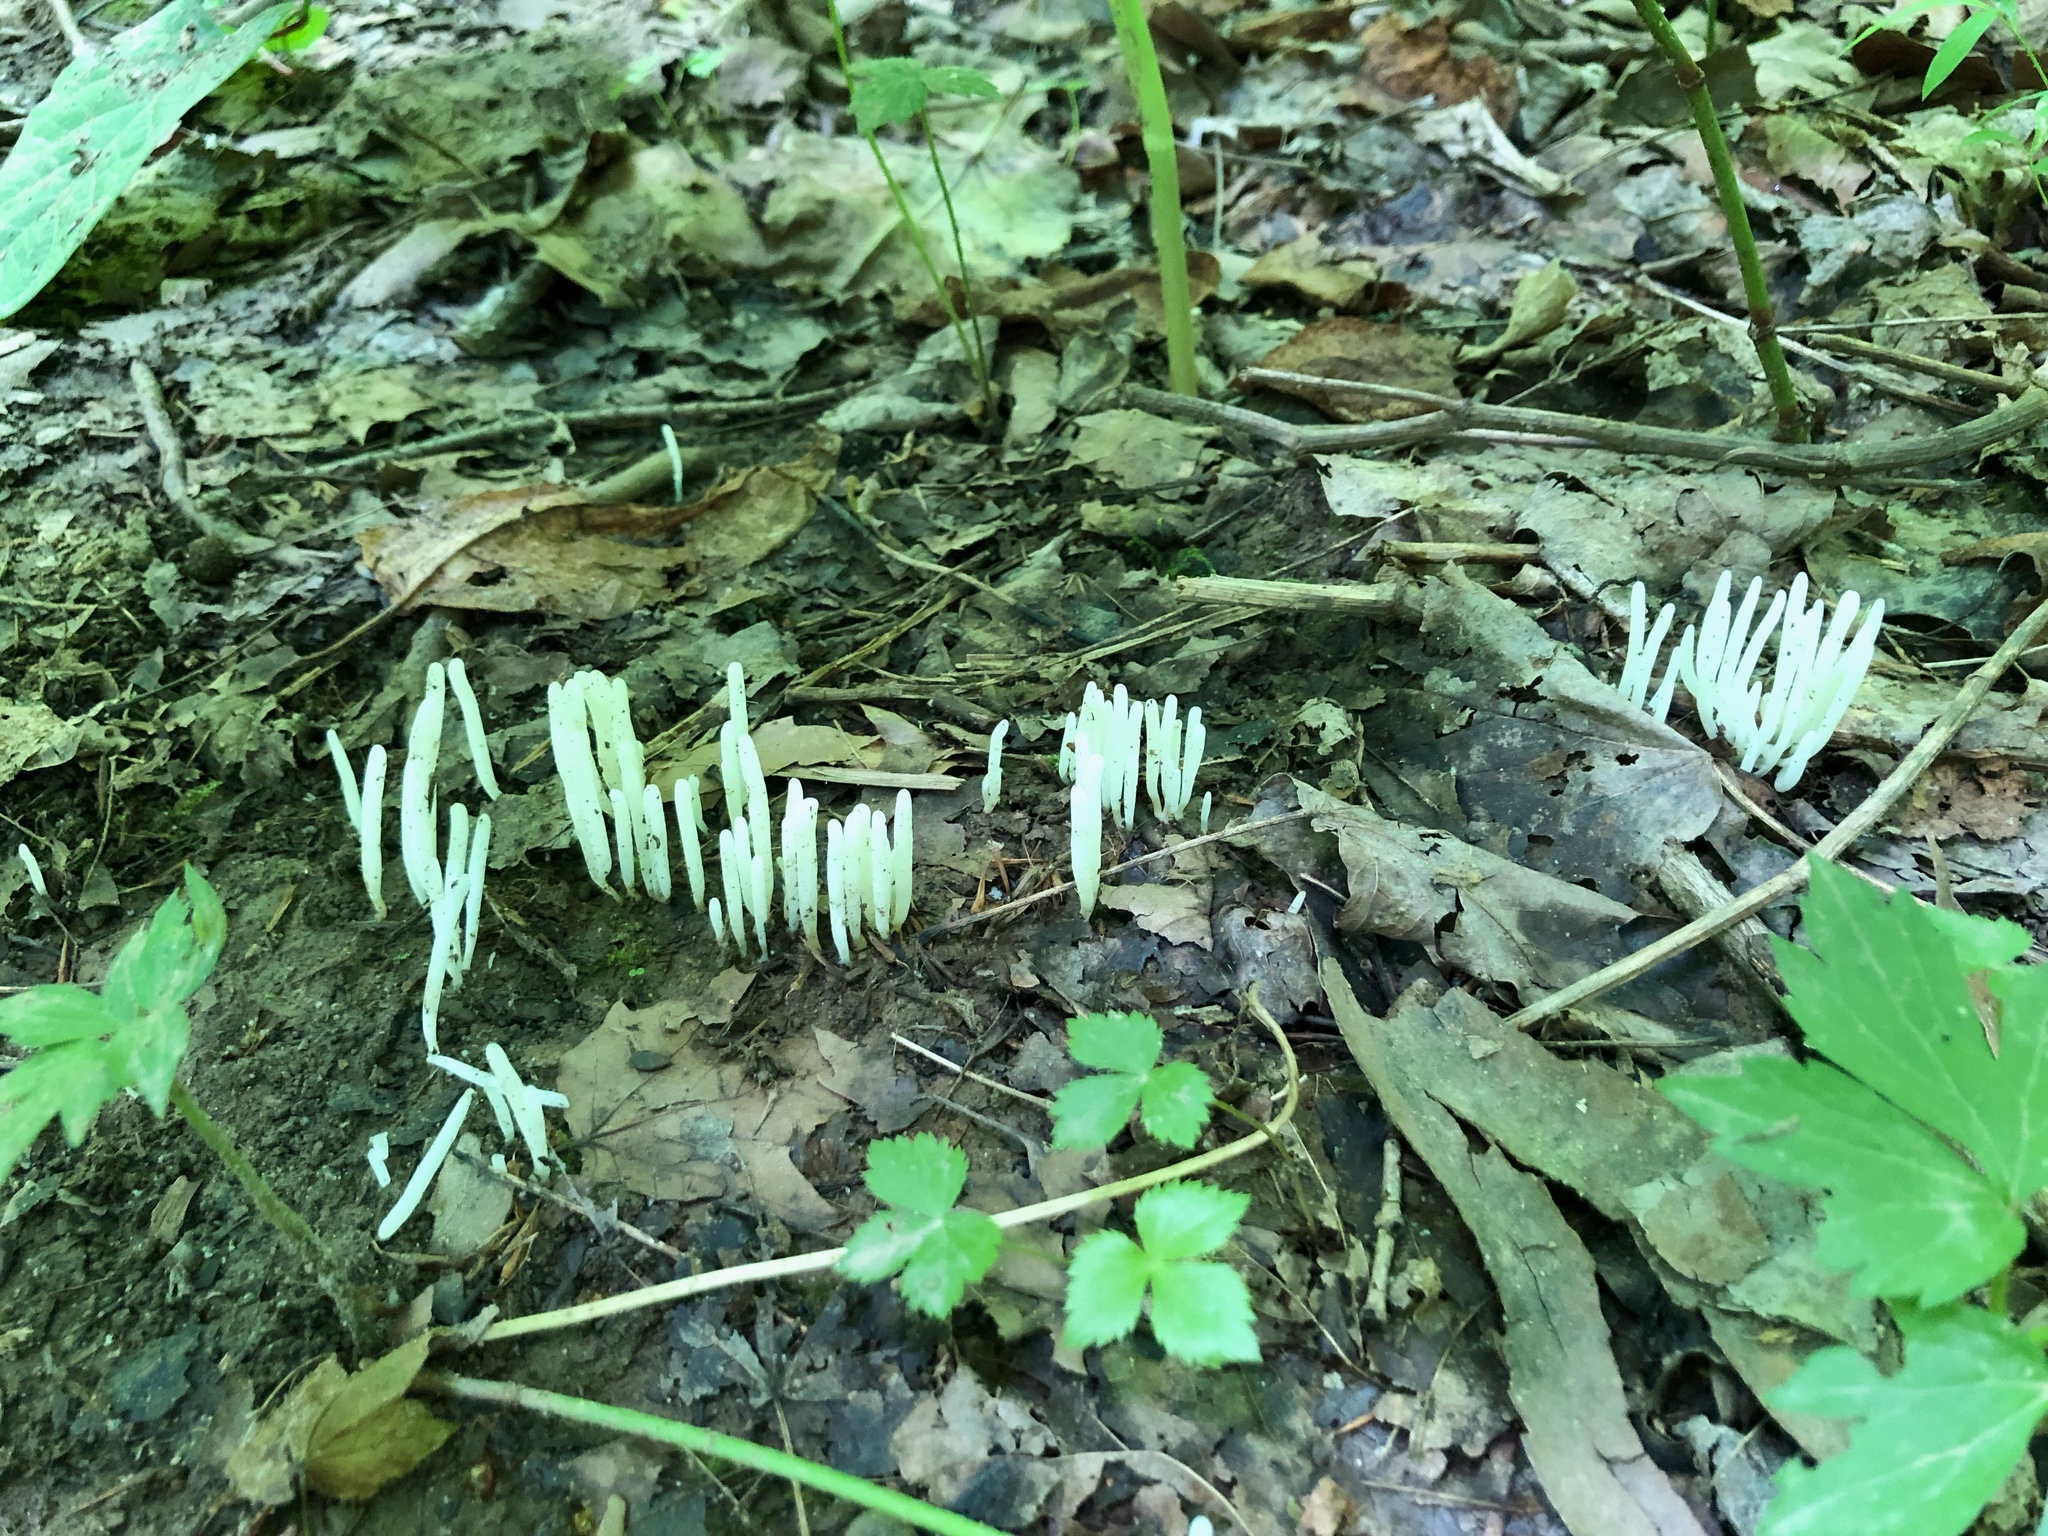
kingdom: Fungi
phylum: Basidiomycota
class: Agaricomycetes
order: Agaricales
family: Clavariaceae
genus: Clavaria
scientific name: Clavaria fragilis
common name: White spindles
